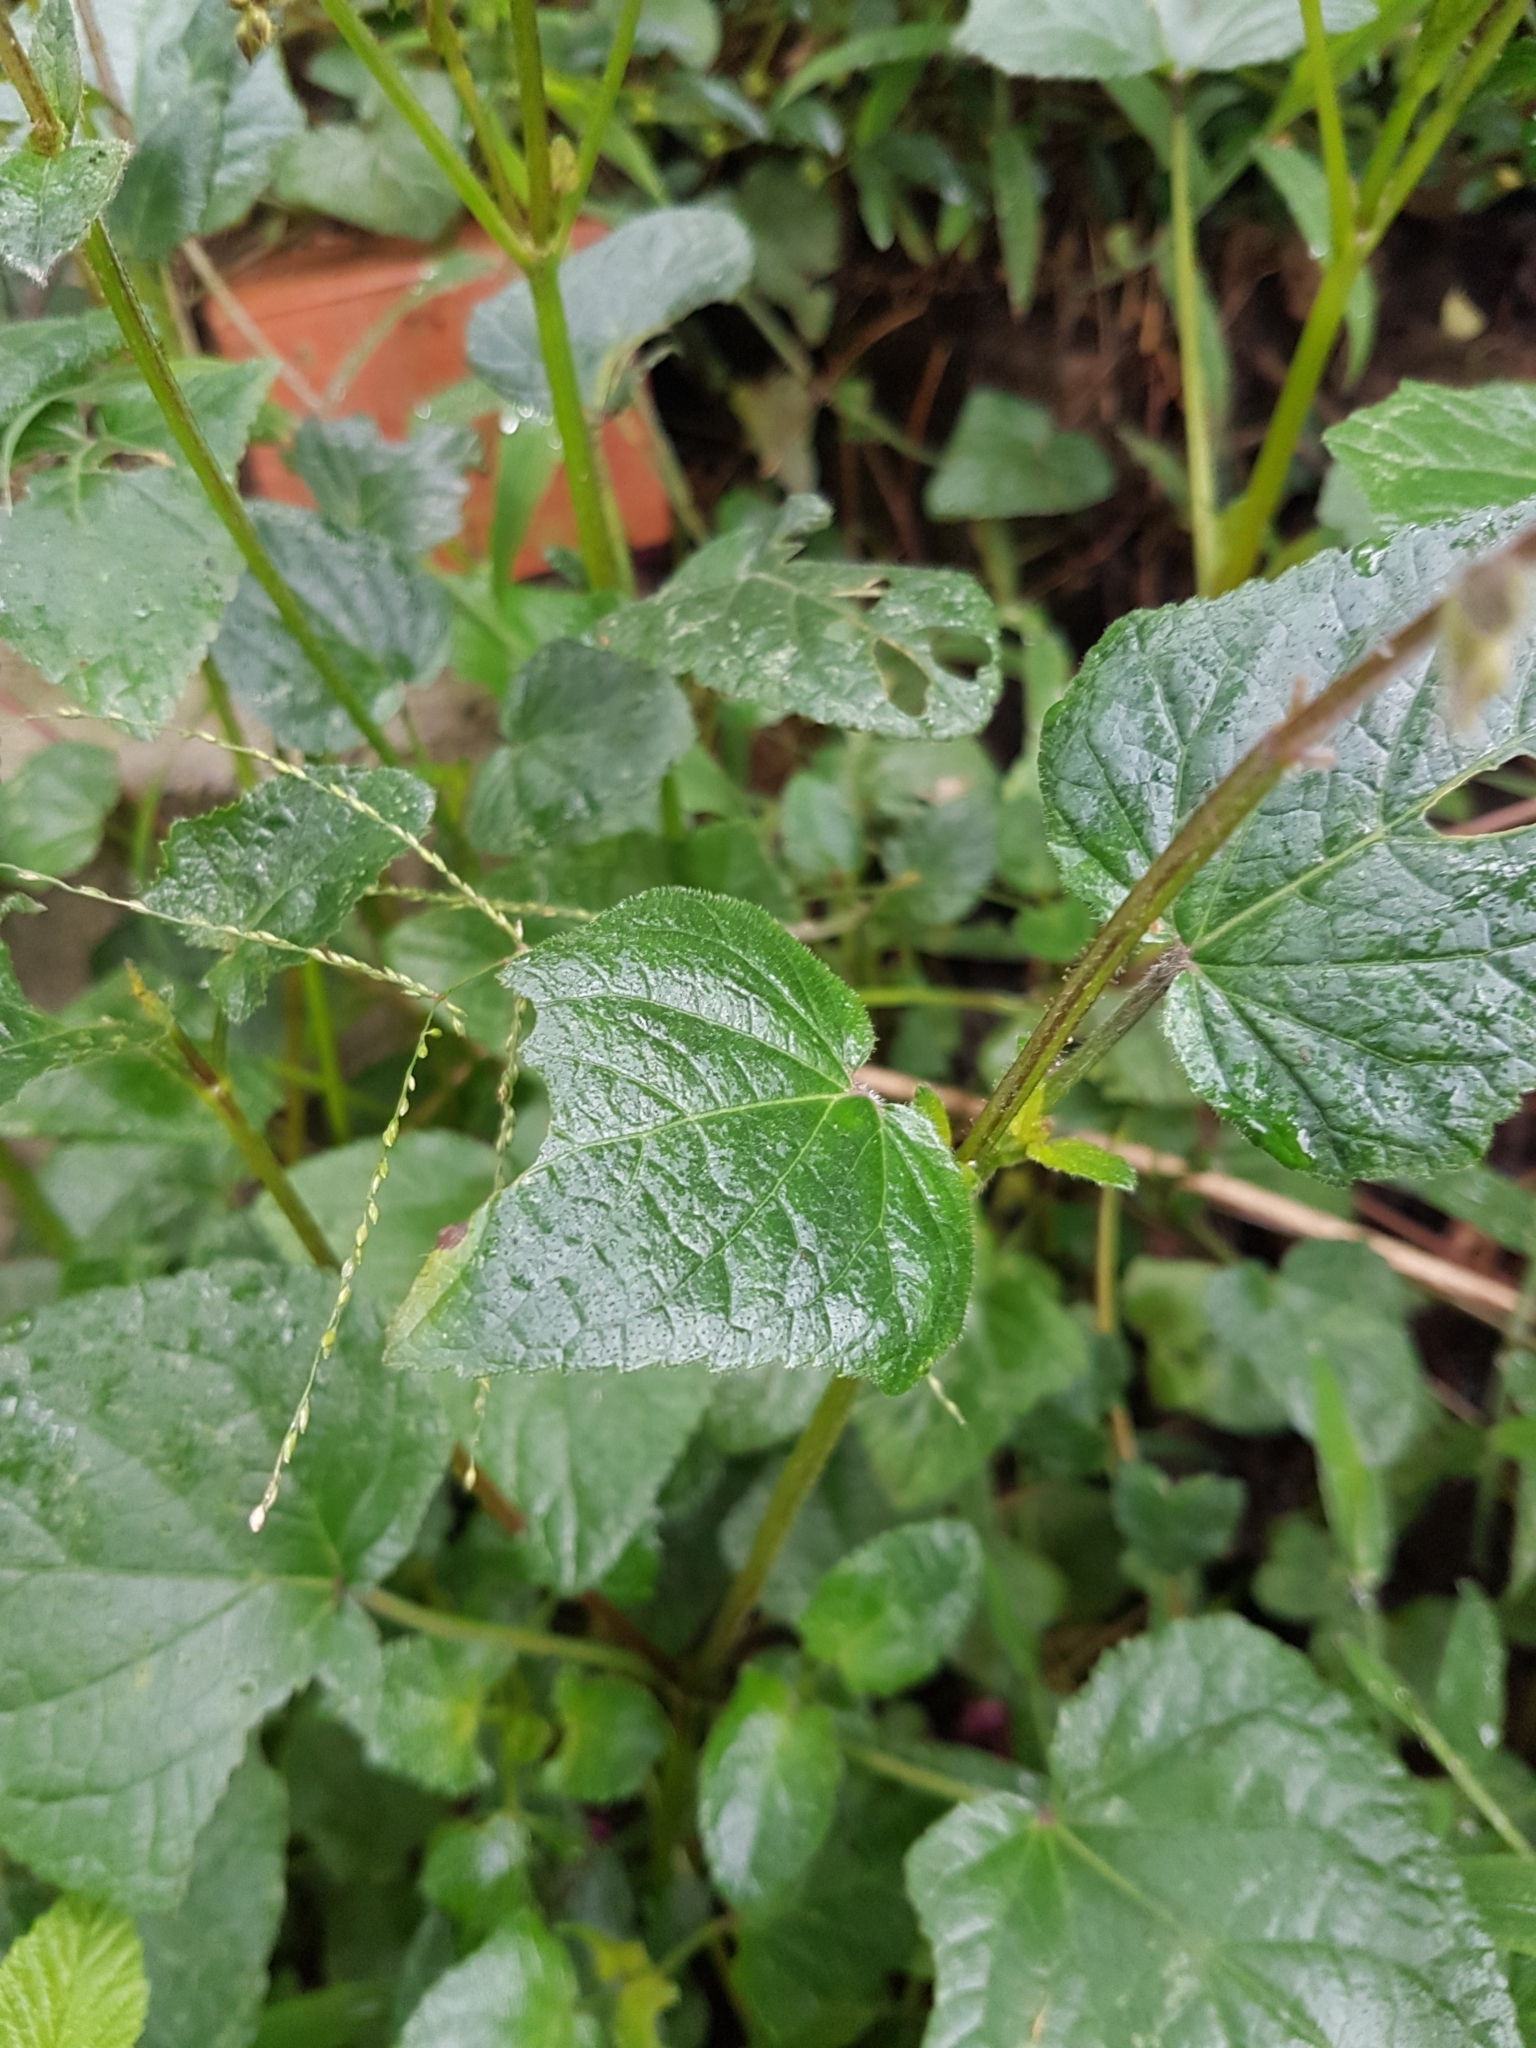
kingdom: Plantae
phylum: Tracheophyta
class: Magnoliopsida
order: Lamiales
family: Lamiaceae
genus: Salvia
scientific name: Salvia scutellarioides
